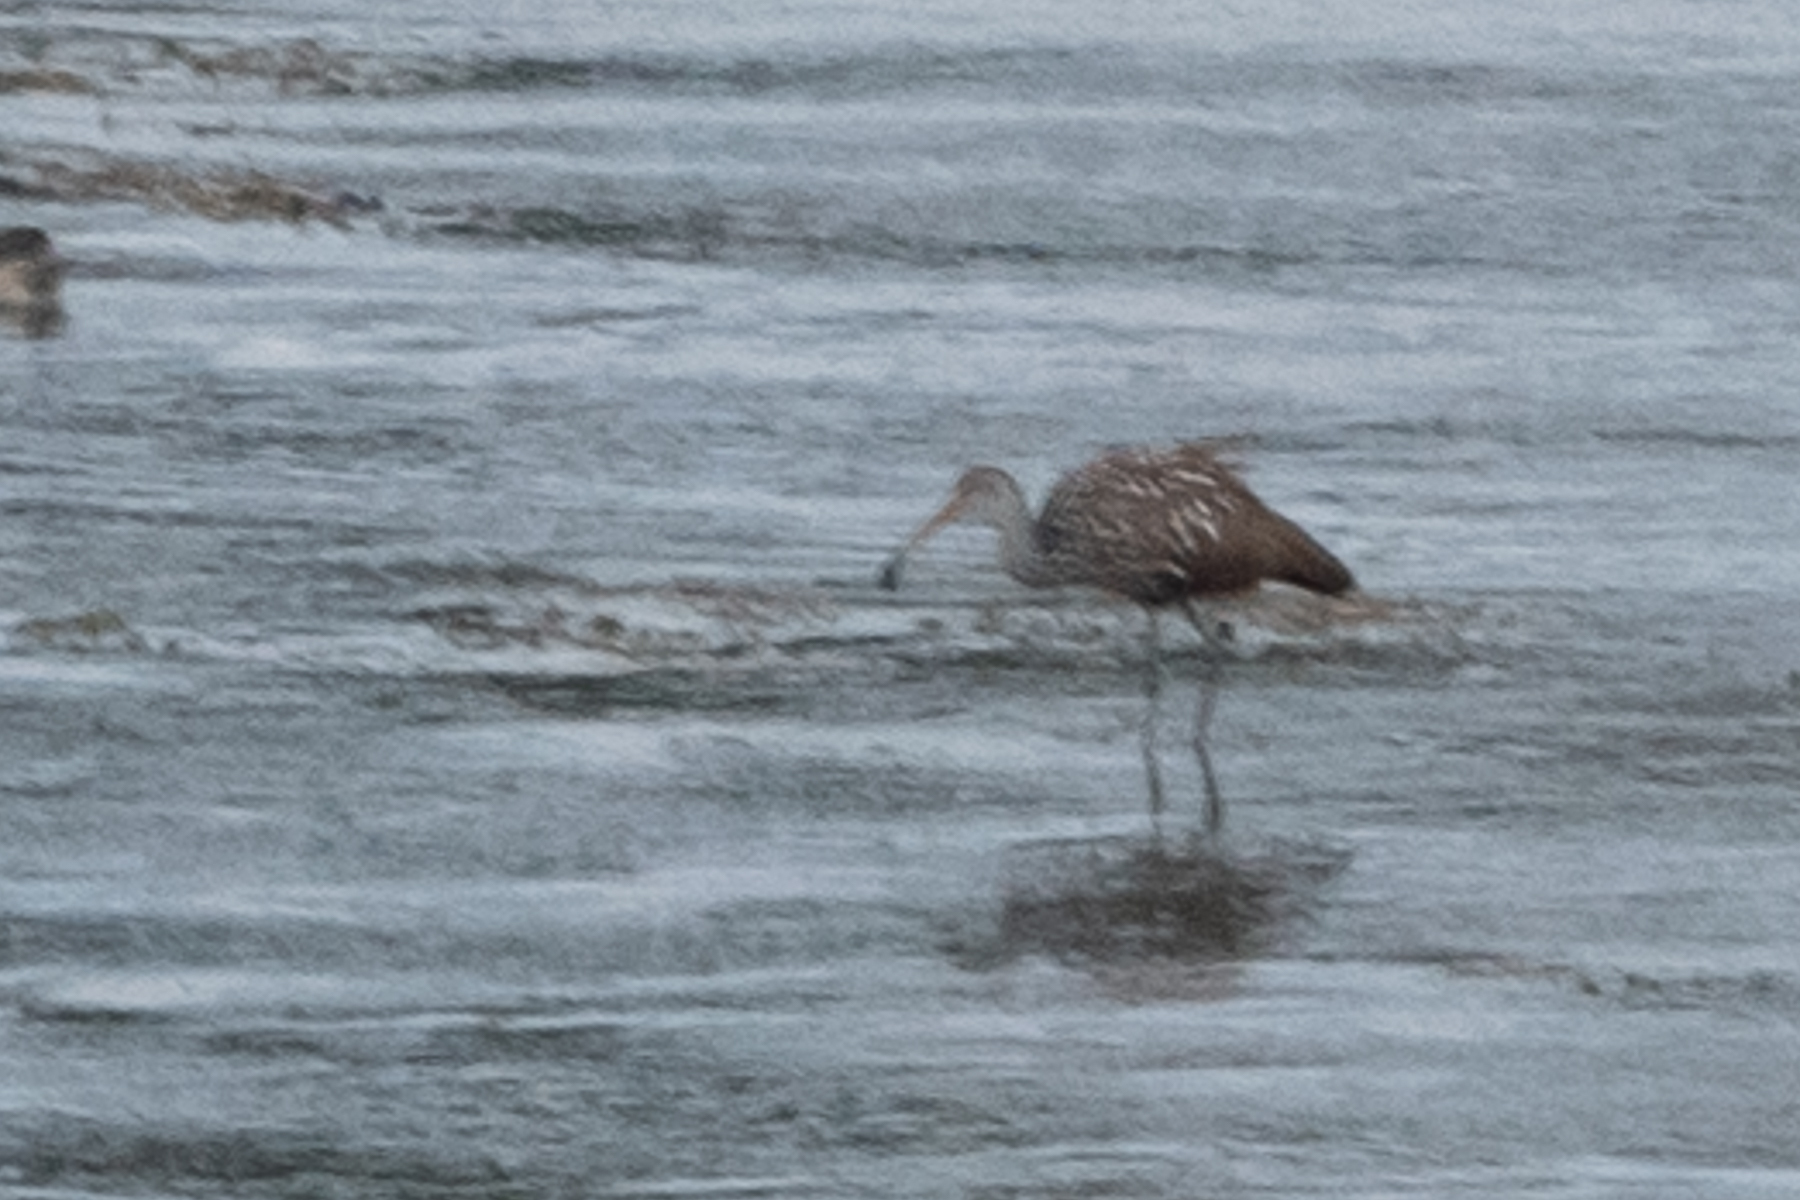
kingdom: Animalia
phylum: Chordata
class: Aves
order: Gruiformes
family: Aramidae
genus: Aramus
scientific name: Aramus guarauna
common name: Limpkin
